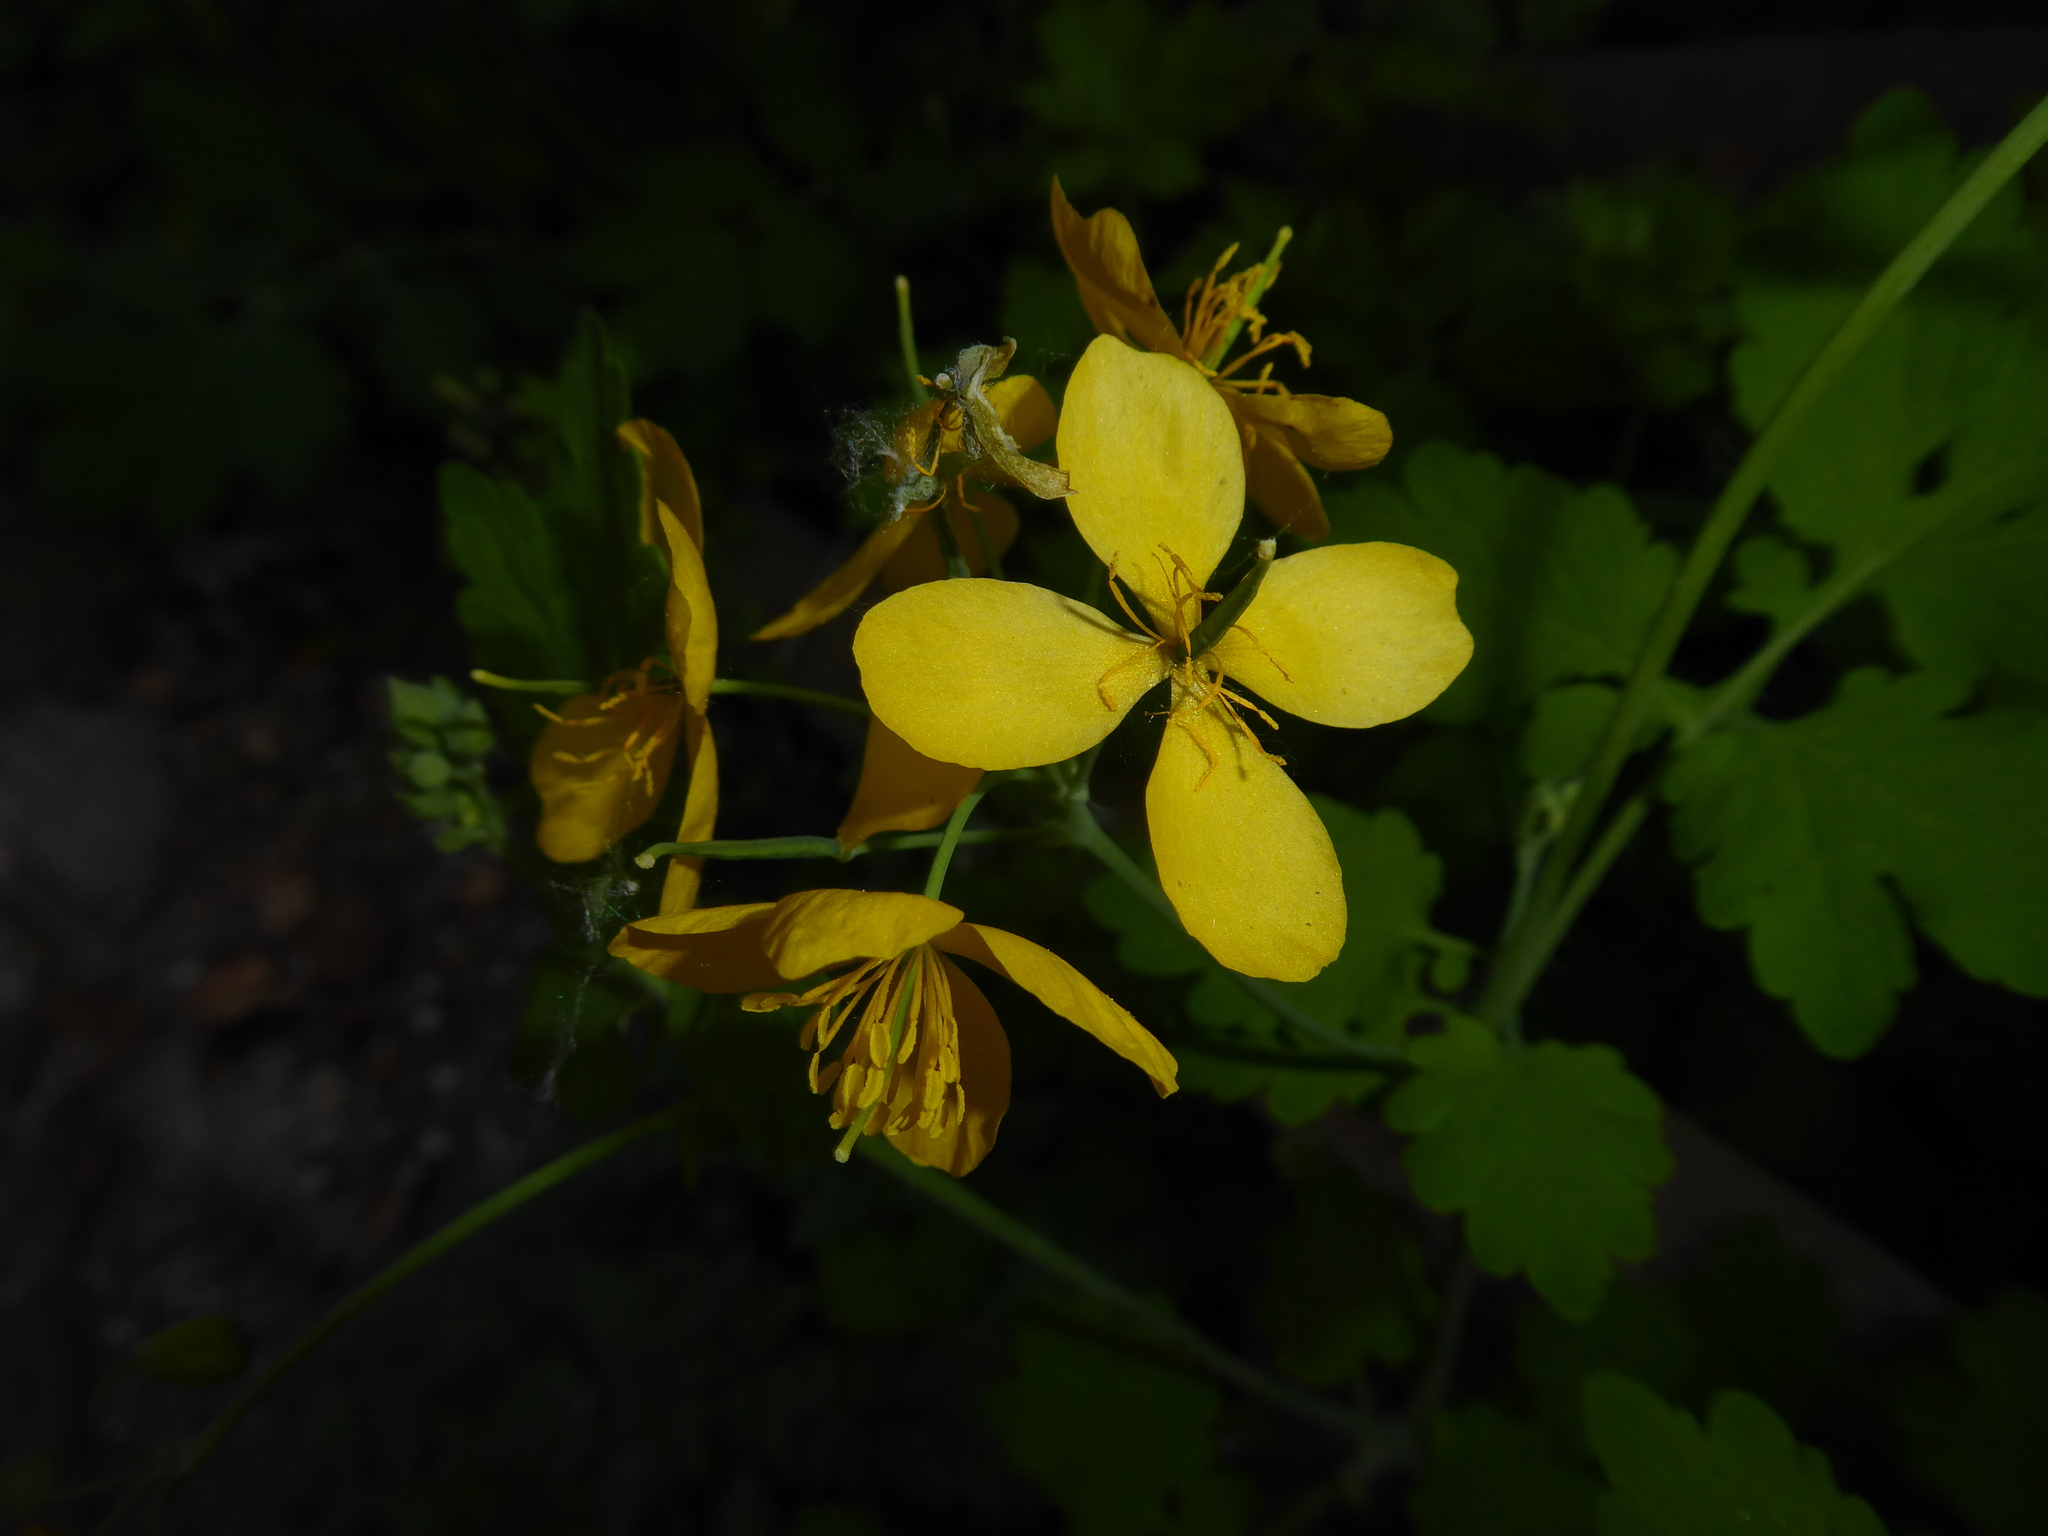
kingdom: Plantae
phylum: Tracheophyta
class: Magnoliopsida
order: Ranunculales
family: Papaveraceae
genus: Chelidonium
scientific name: Chelidonium majus
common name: Greater celandine
